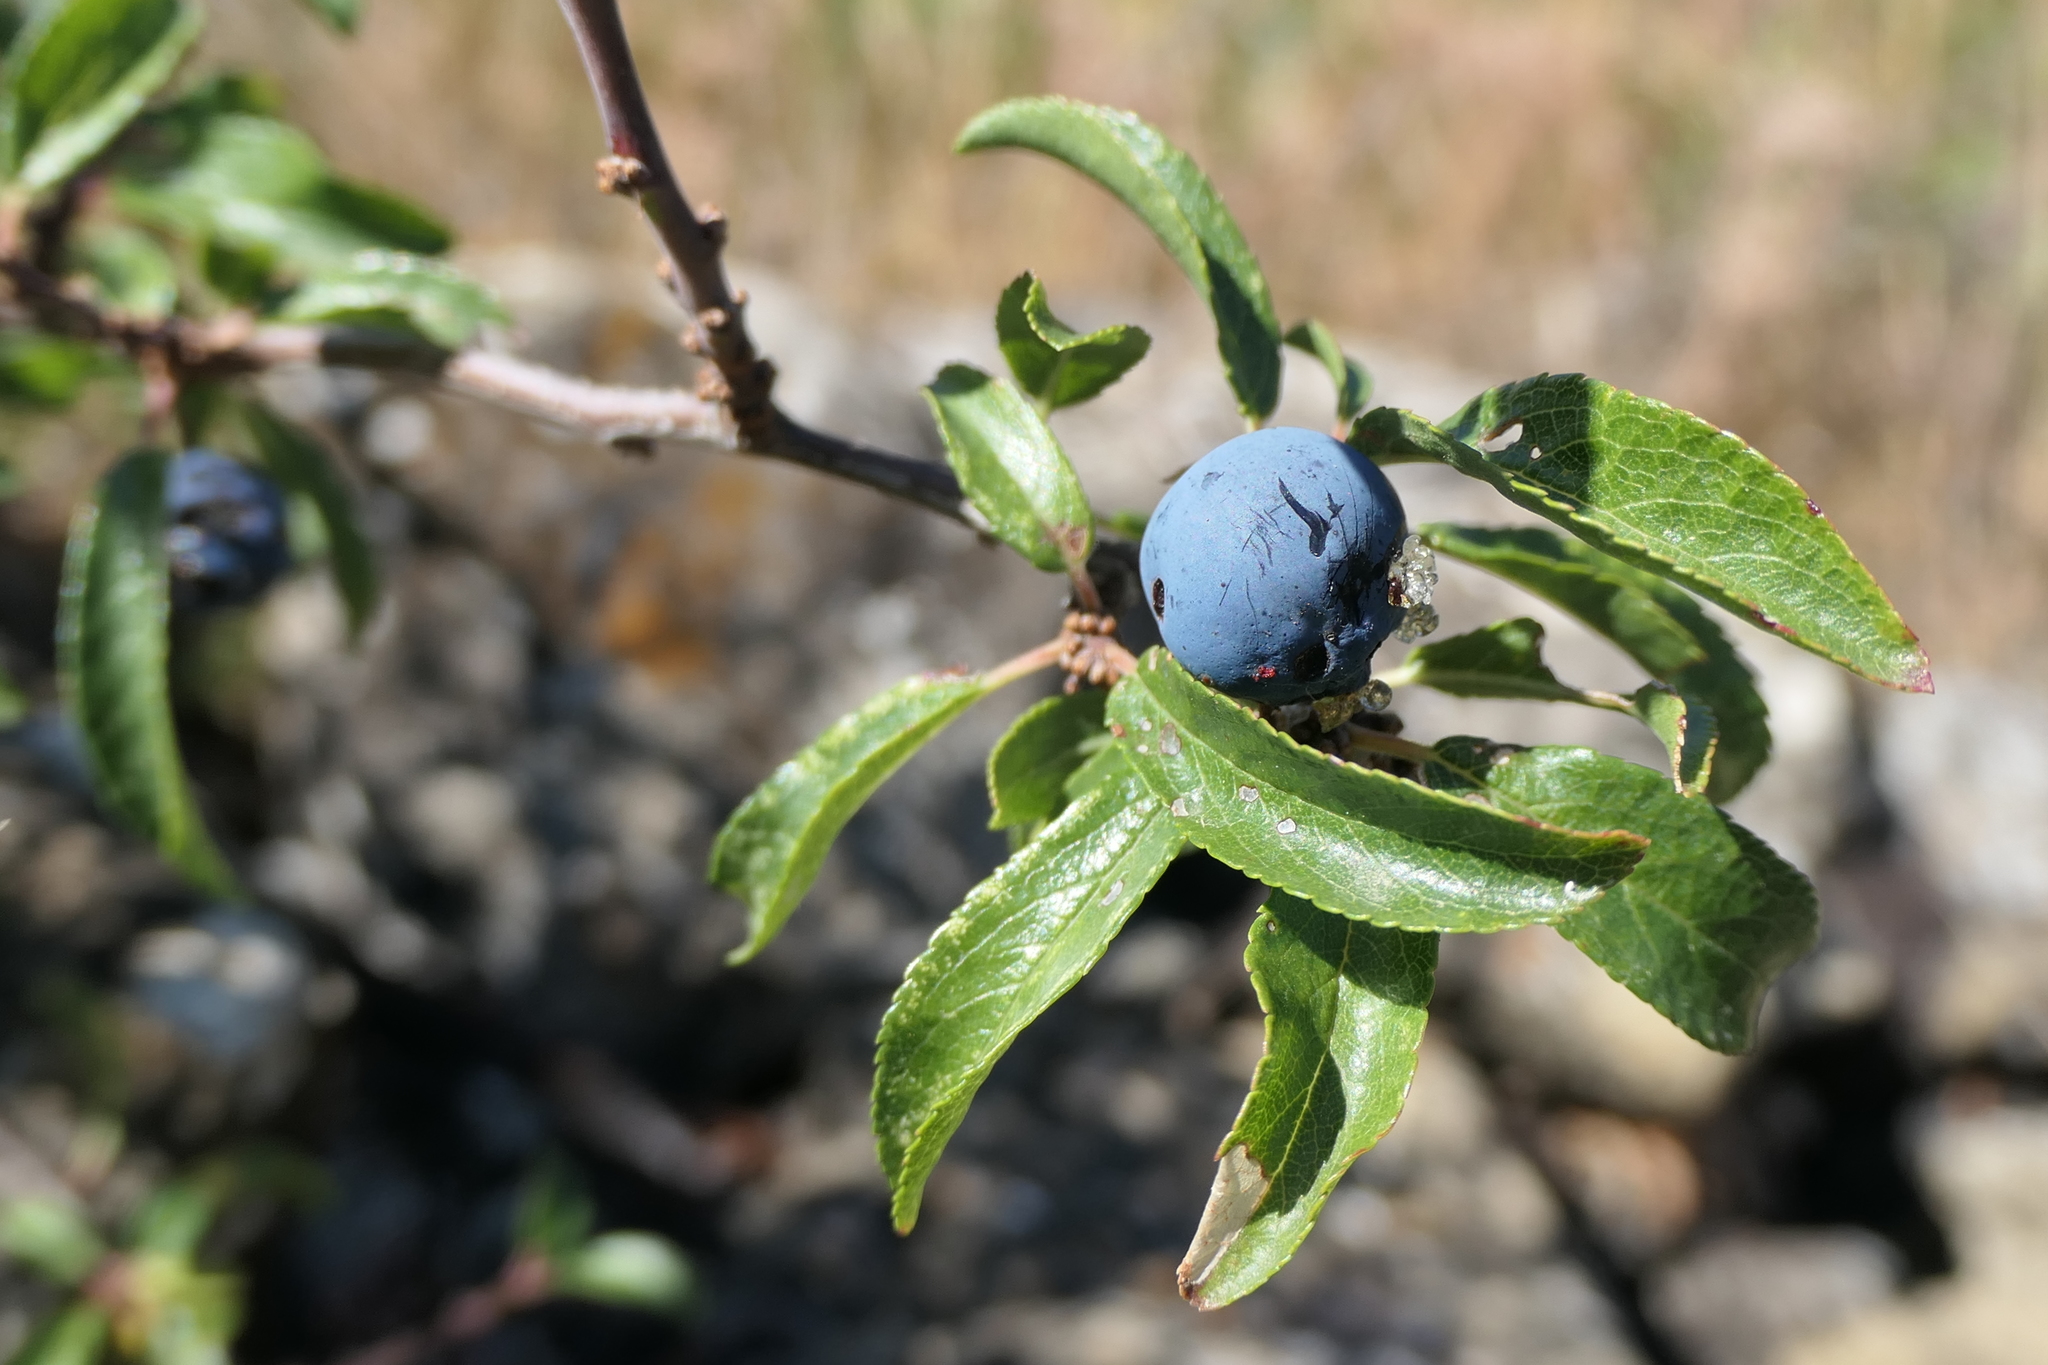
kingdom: Plantae
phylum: Tracheophyta
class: Magnoliopsida
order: Rosales
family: Rosaceae
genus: Prunus
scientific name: Prunus spinosa
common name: Blackthorn
